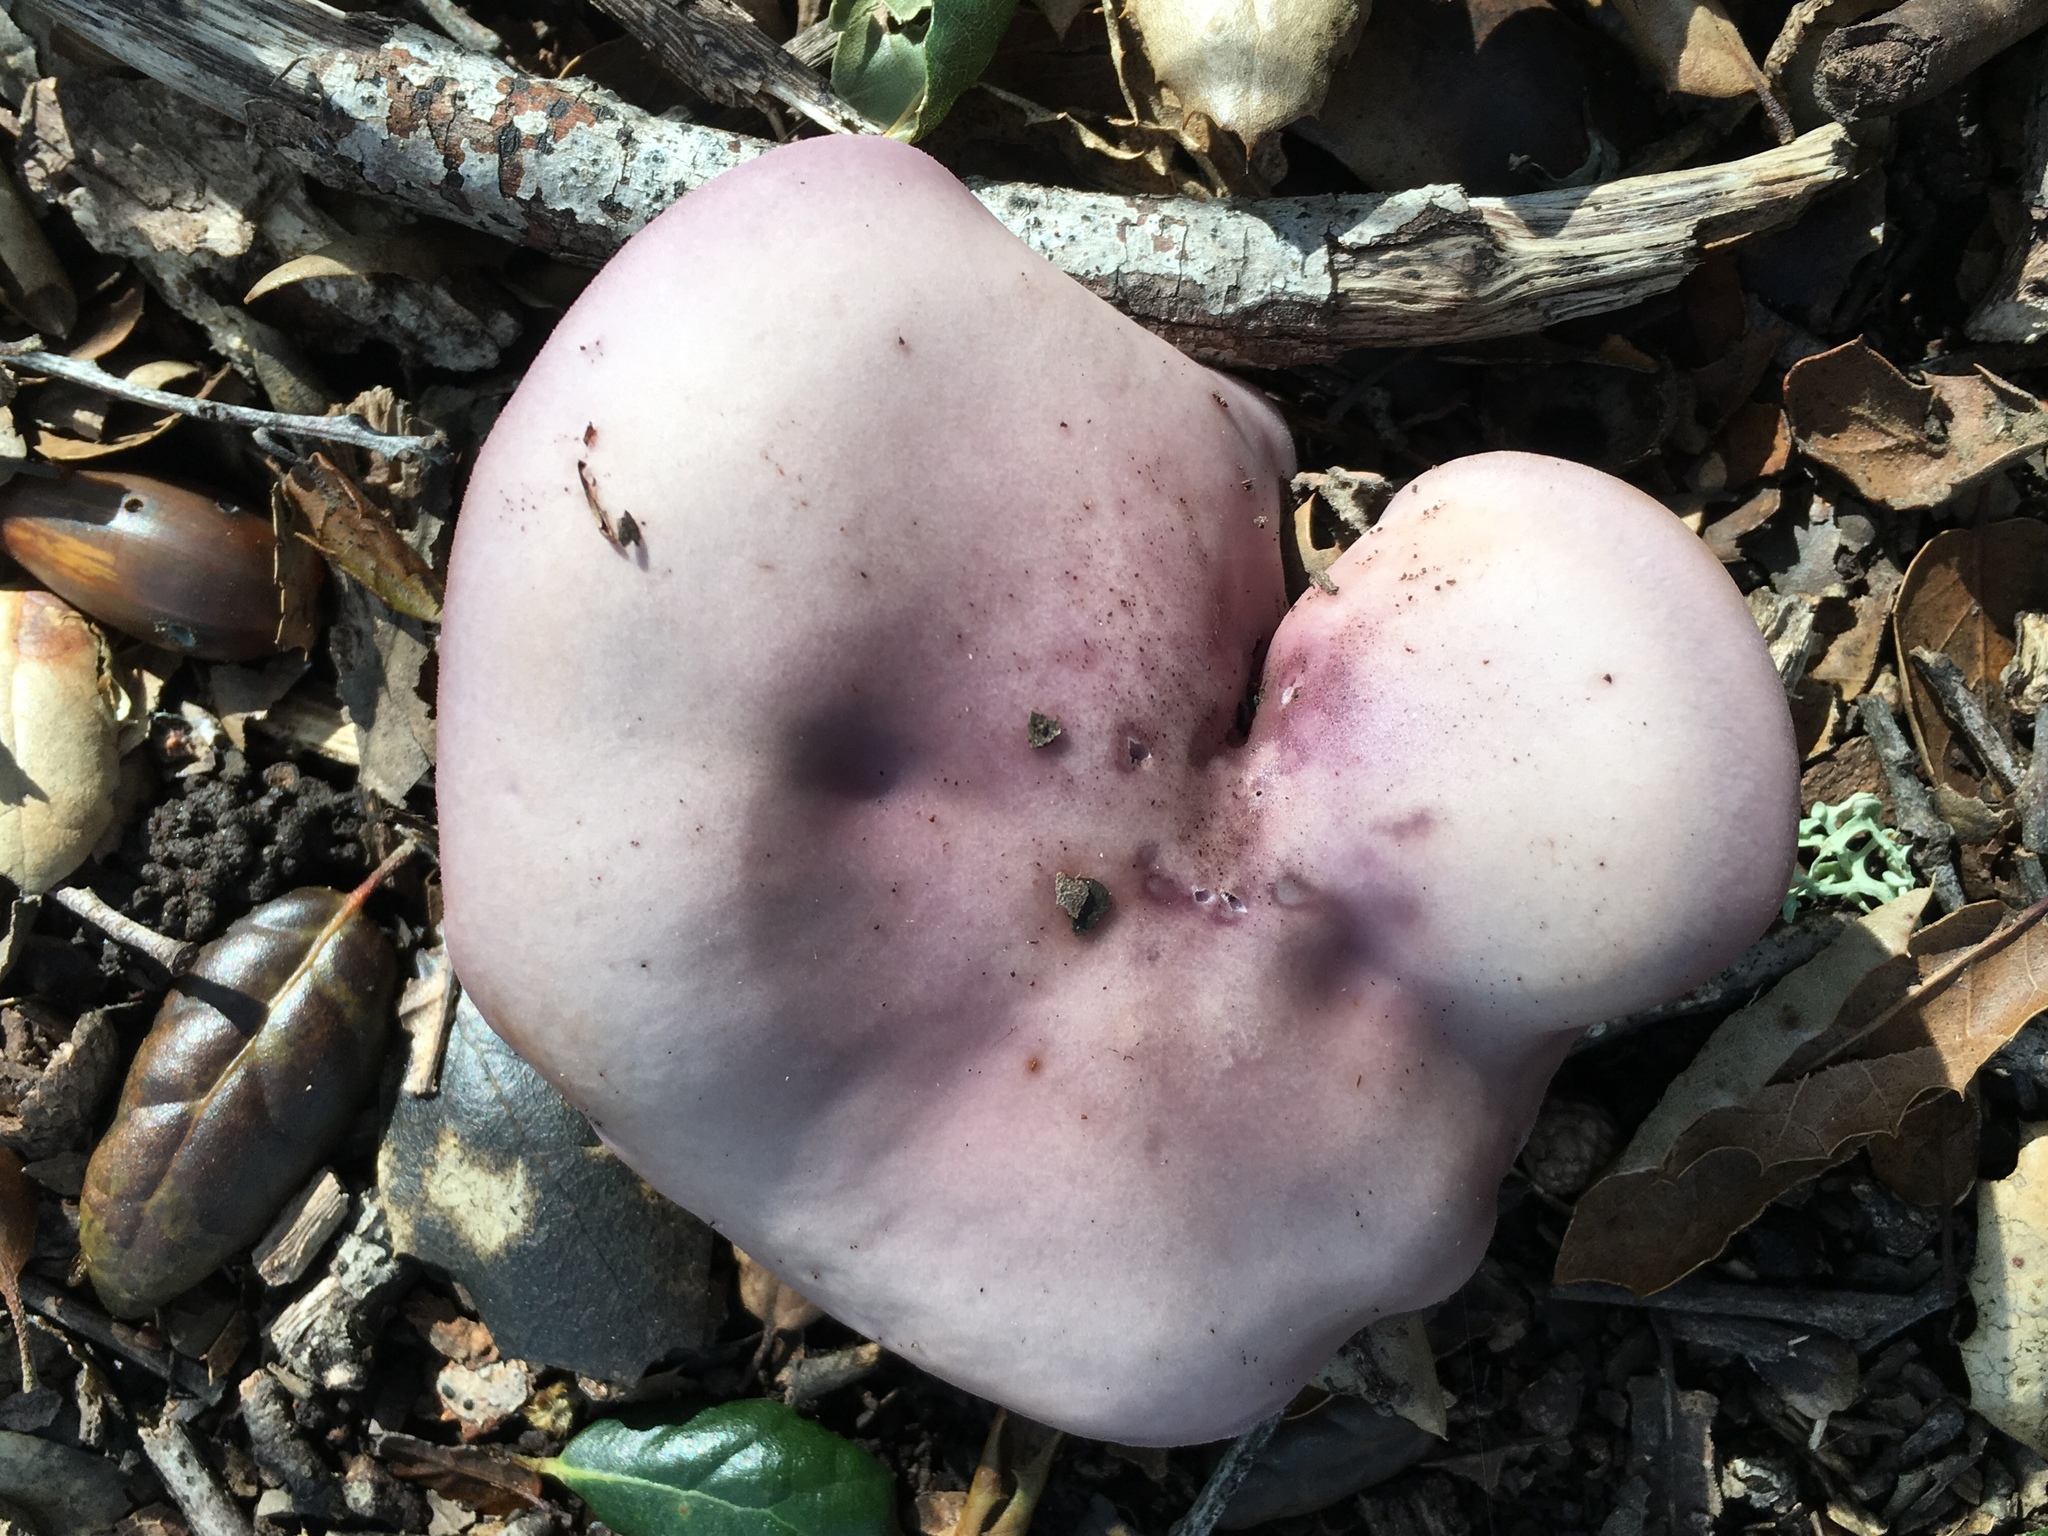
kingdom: Fungi
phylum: Basidiomycota
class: Agaricomycetes
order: Agaricales
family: Tricholomataceae
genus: Collybia
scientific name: Collybia
